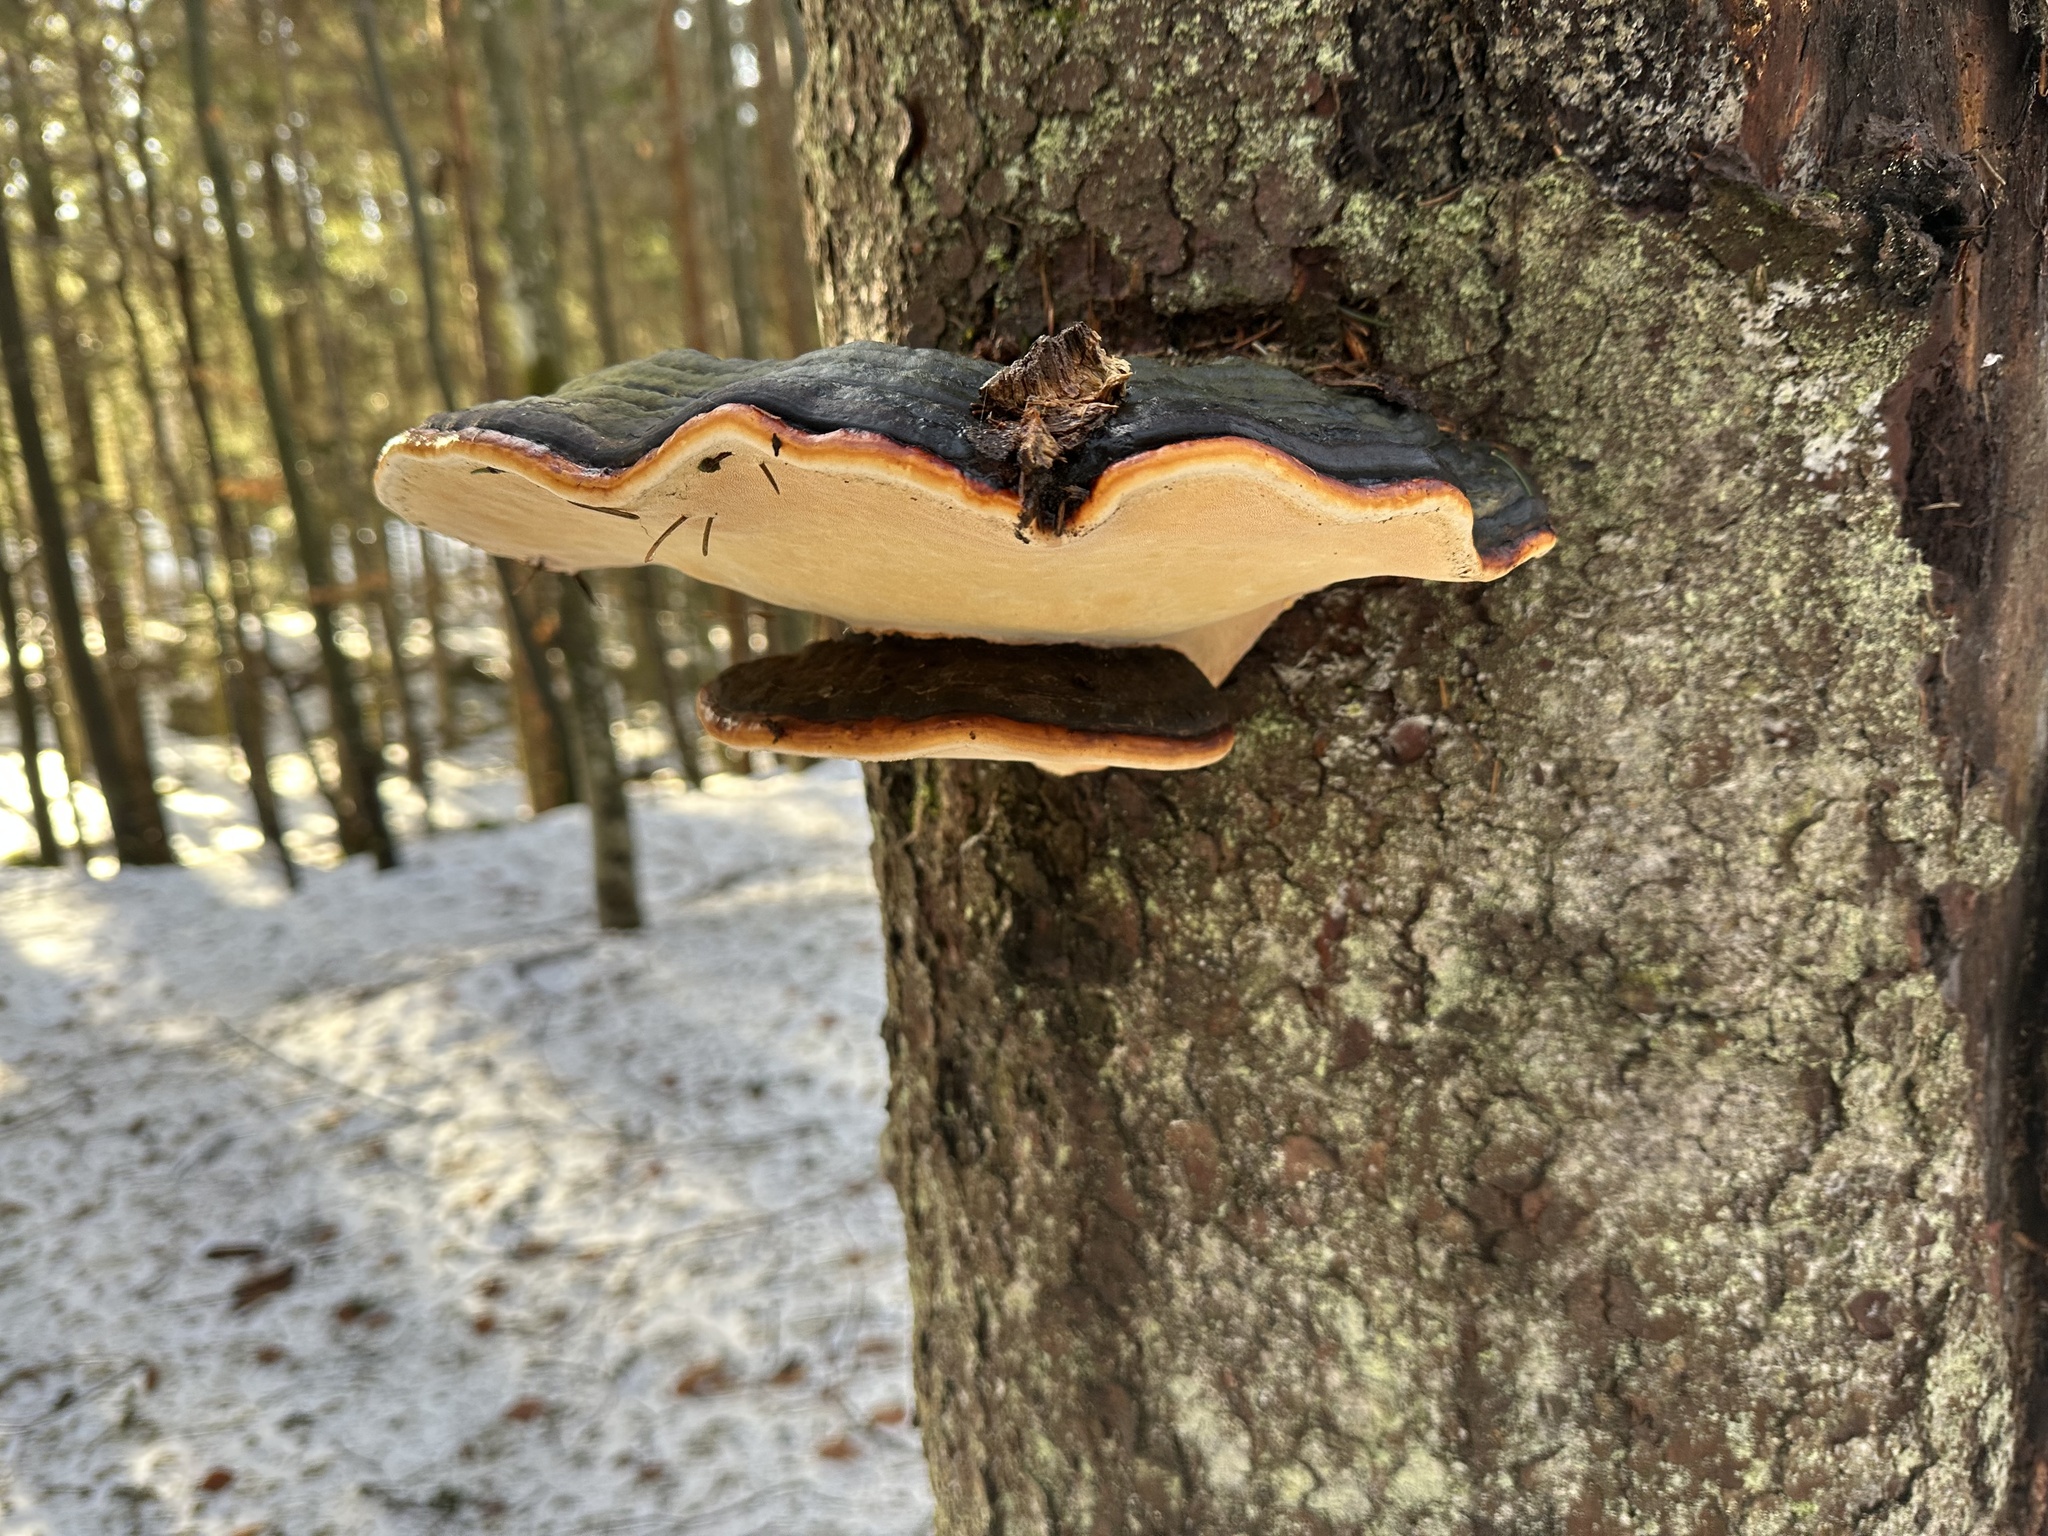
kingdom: Fungi
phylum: Basidiomycota
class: Agaricomycetes
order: Polyporales
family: Fomitopsidaceae
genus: Fomitopsis
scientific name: Fomitopsis pinicola
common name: Red-belted bracket
